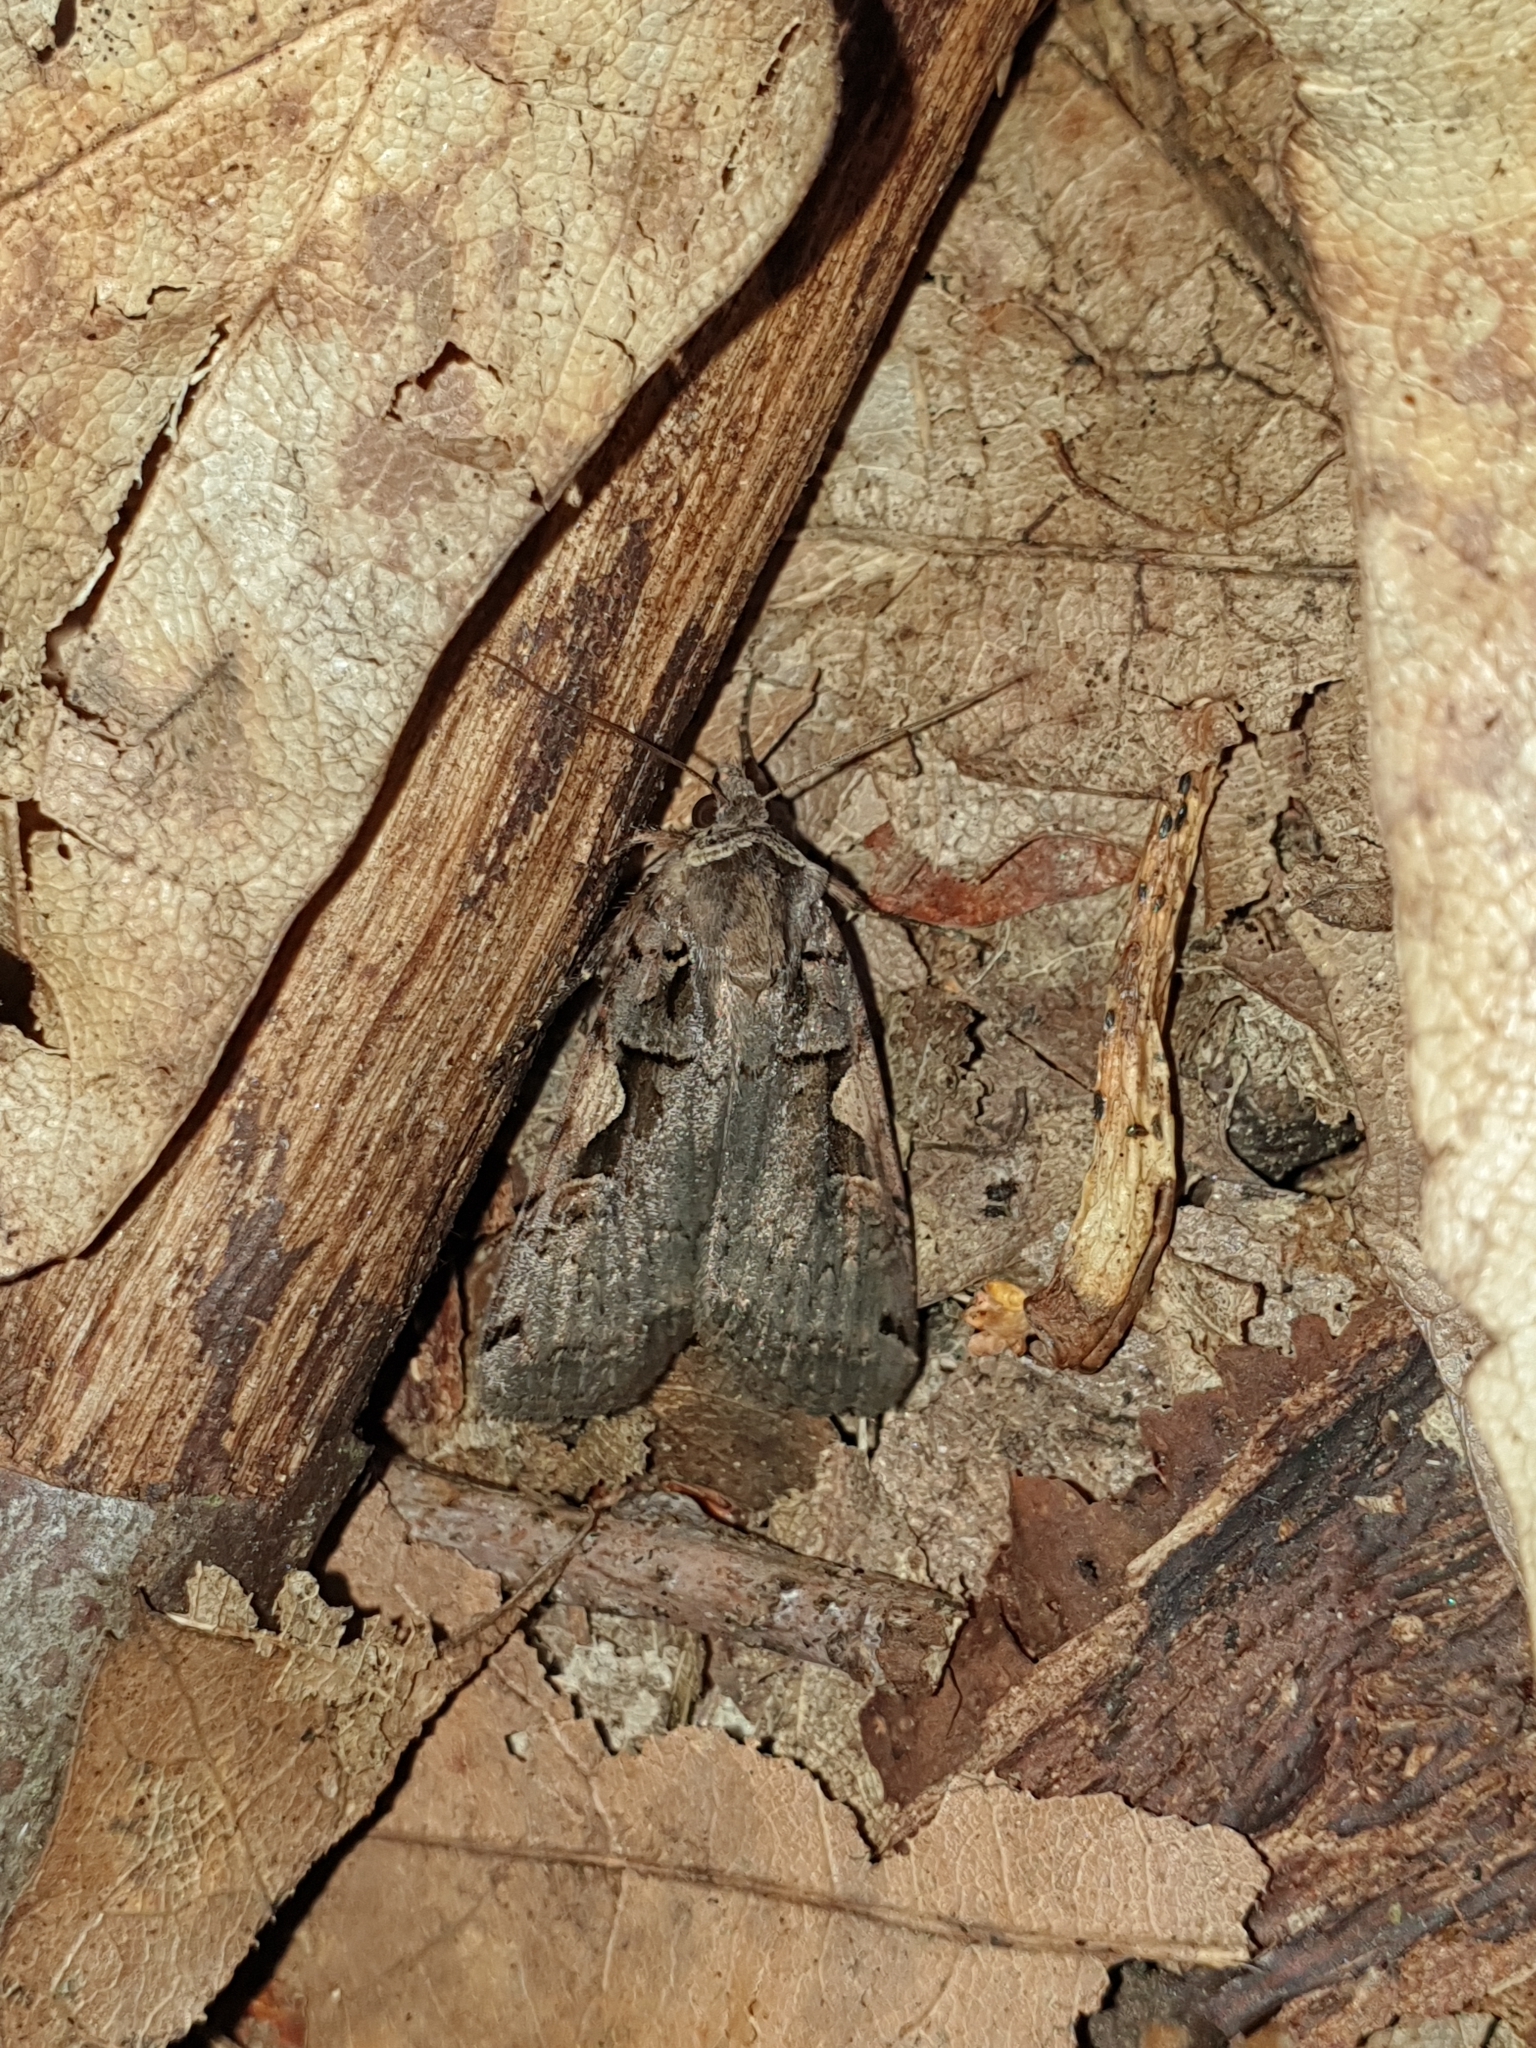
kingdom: Animalia
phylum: Arthropoda
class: Insecta
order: Lepidoptera
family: Noctuidae
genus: Xestia
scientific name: Xestia c-nigrum
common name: Setaceous hebrew character
